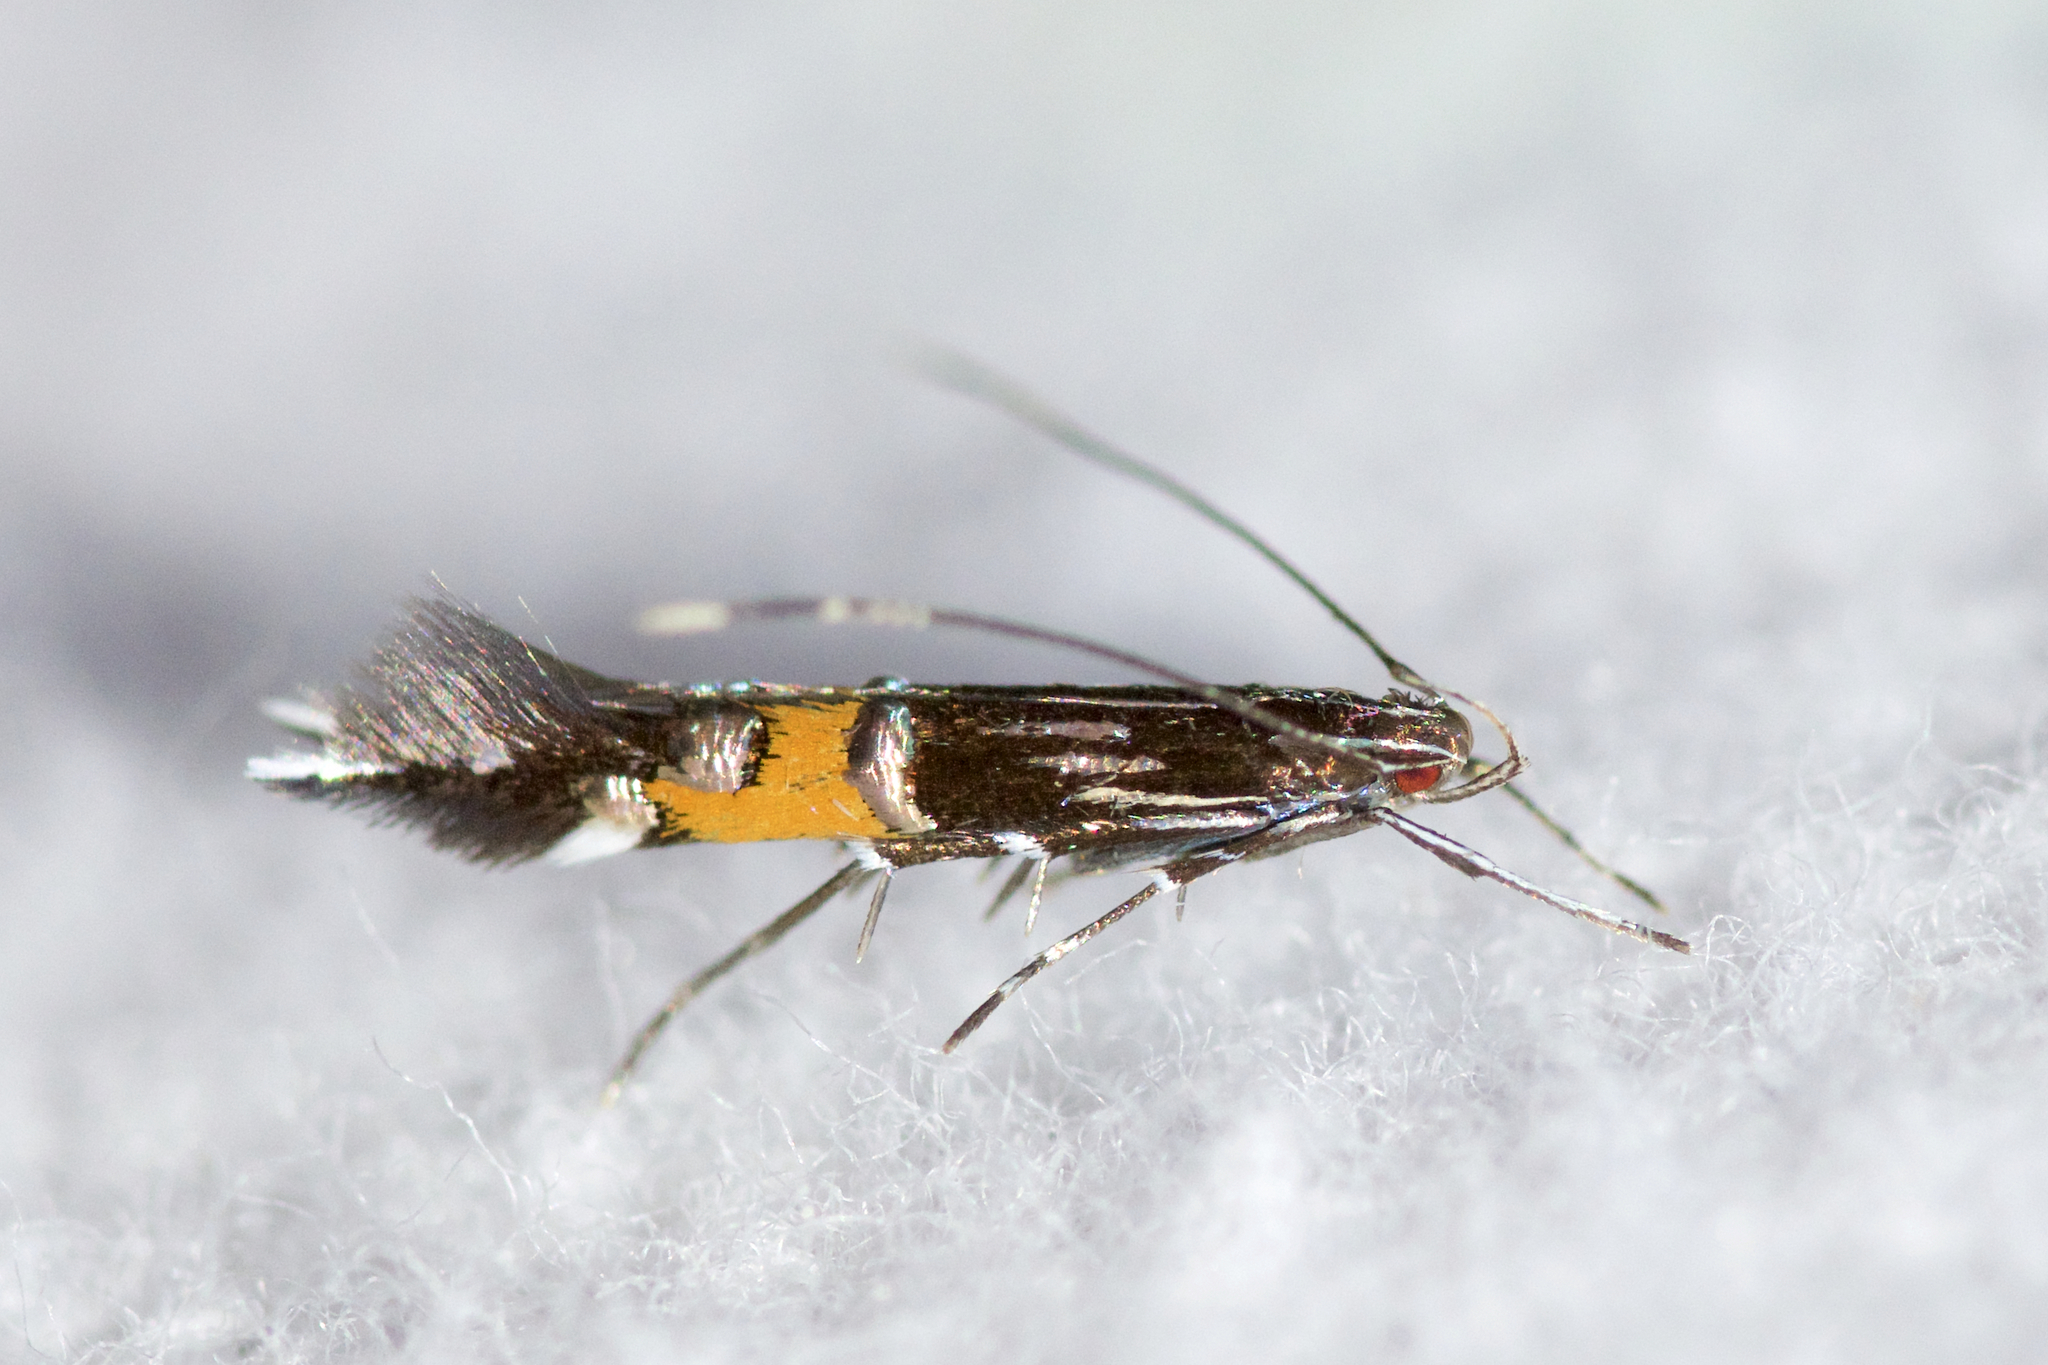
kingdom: Animalia
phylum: Arthropoda
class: Insecta
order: Lepidoptera
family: Cosmopterigidae
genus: Cosmopterix
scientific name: Cosmopterix montisella
